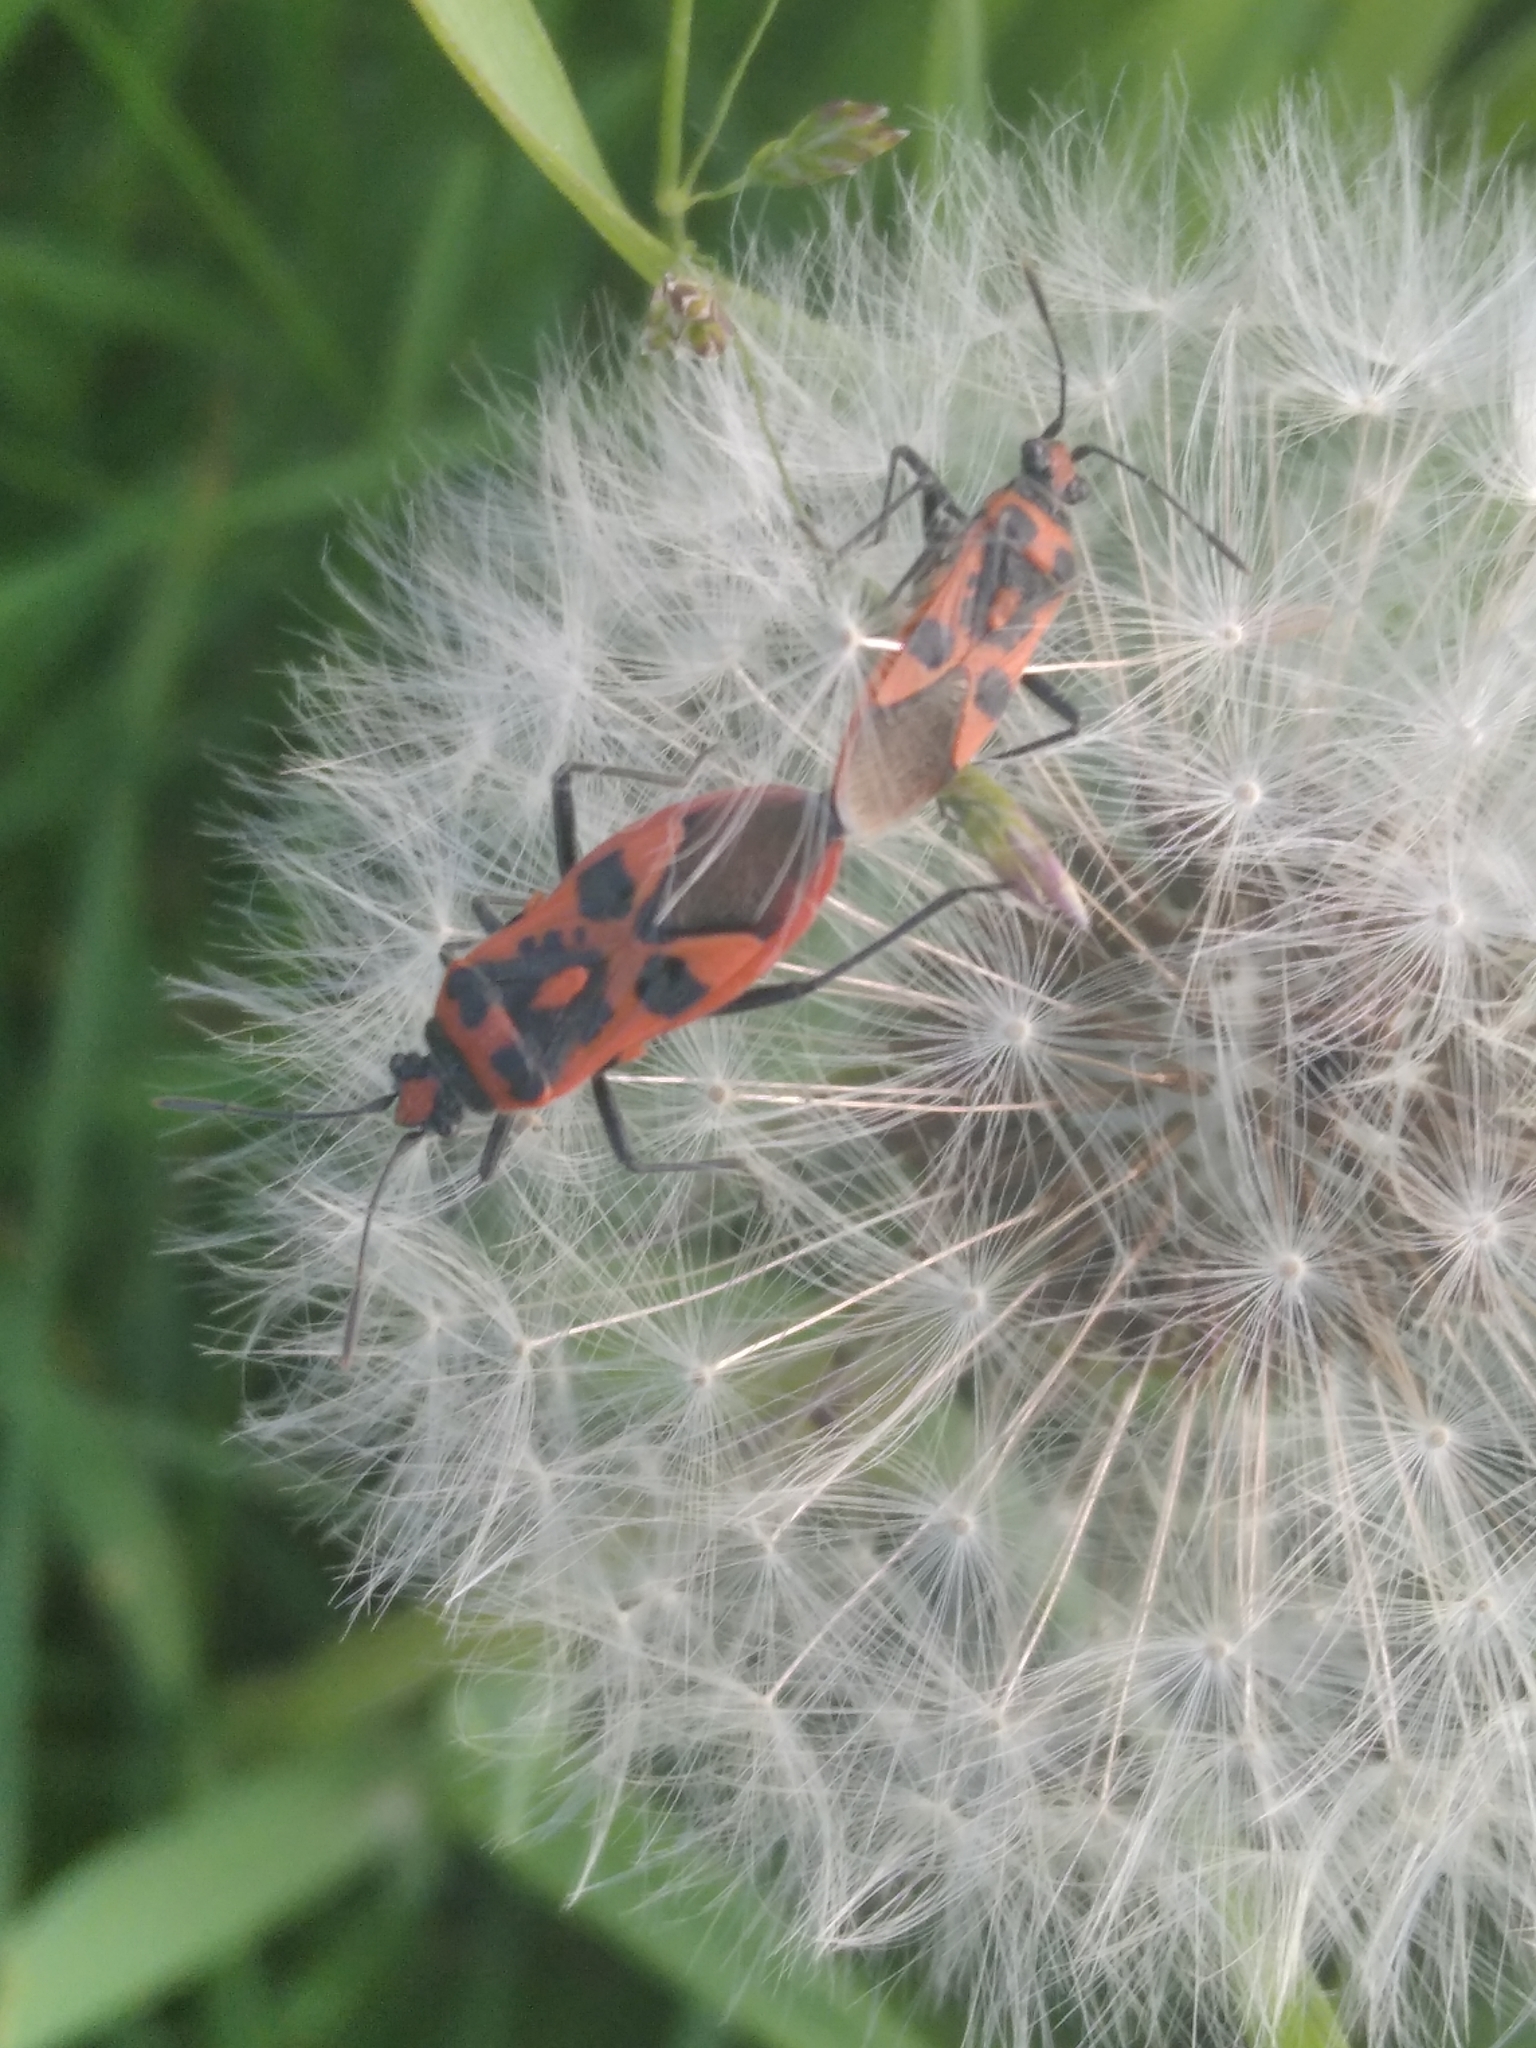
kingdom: Animalia
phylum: Arthropoda
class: Insecta
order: Hemiptera
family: Rhopalidae
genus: Corizus
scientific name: Corizus hyoscyami
